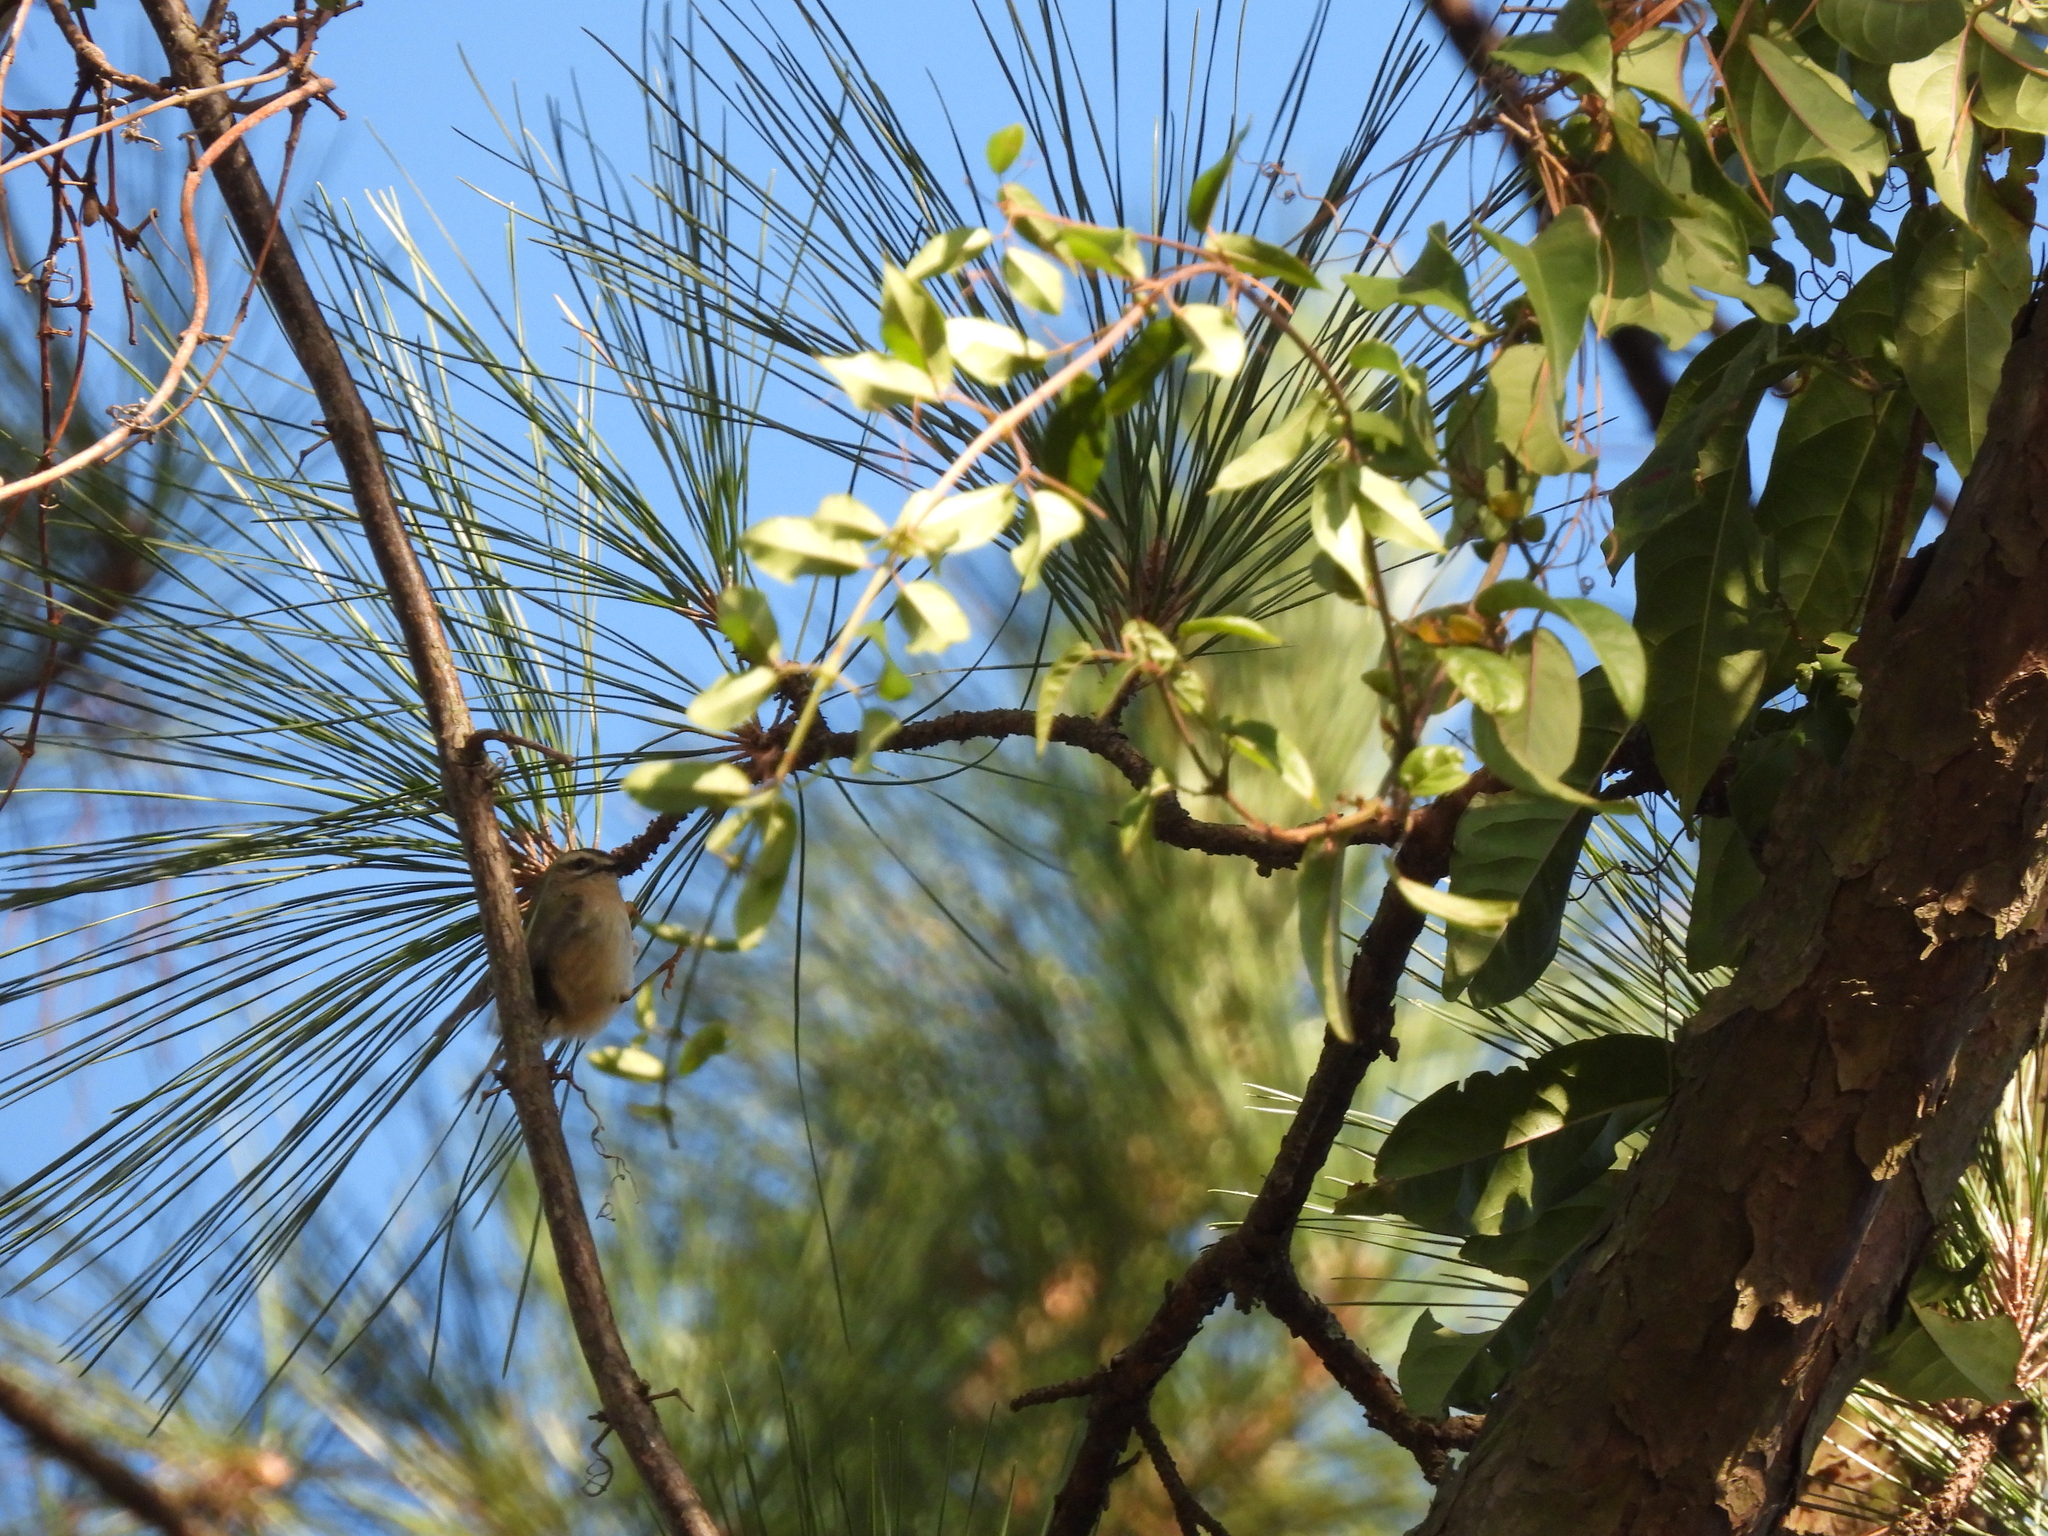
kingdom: Animalia
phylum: Chordata
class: Aves
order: Passeriformes
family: Regulidae
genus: Regulus
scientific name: Regulus satrapa
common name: Golden-crowned kinglet
